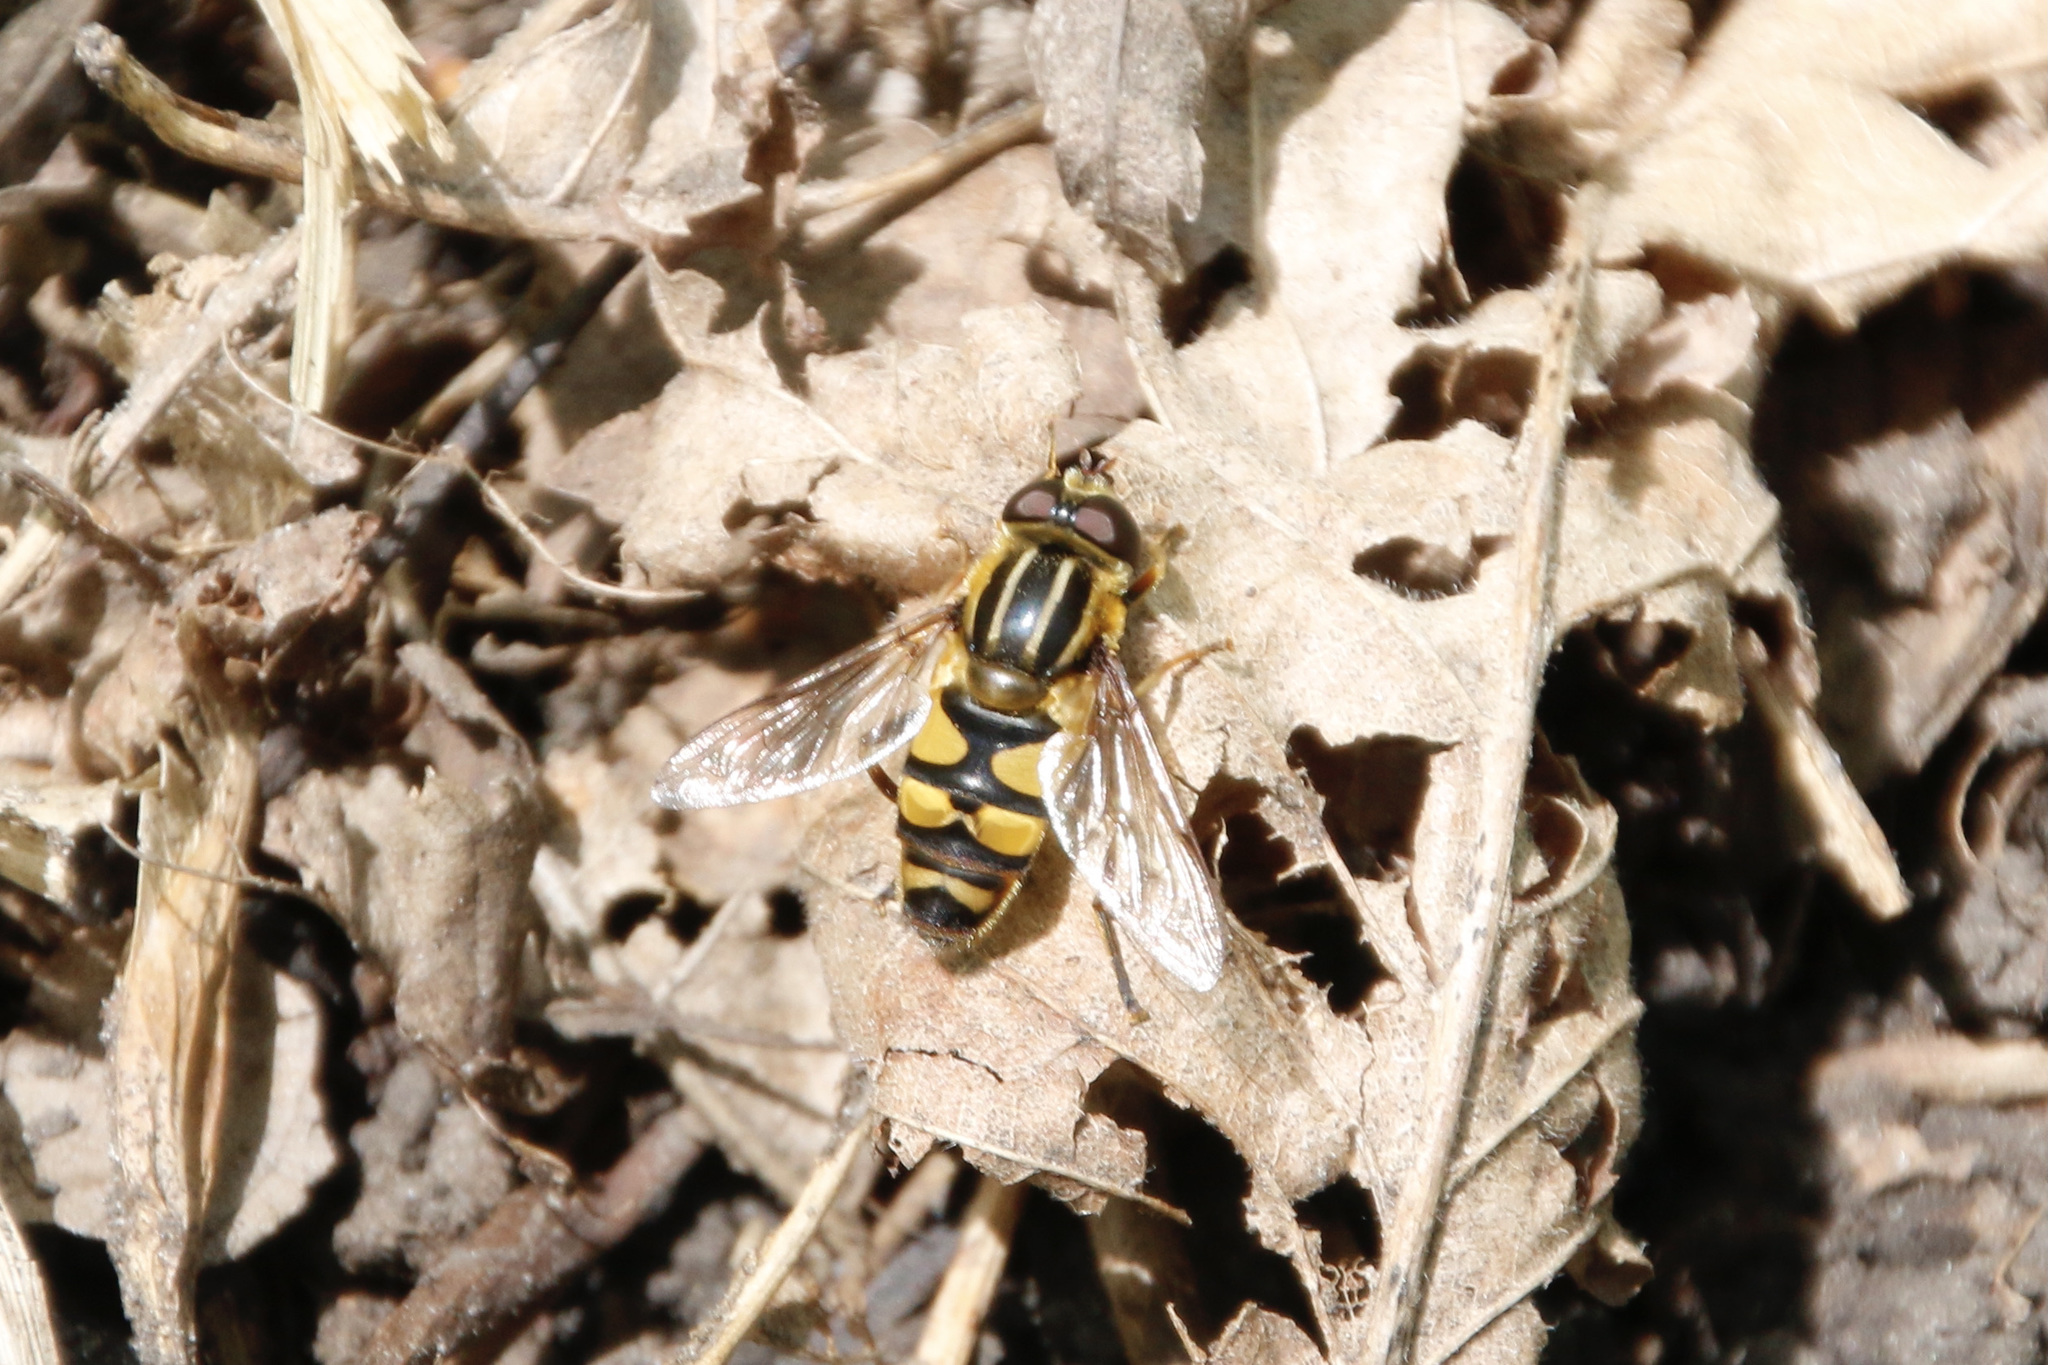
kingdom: Animalia
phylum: Arthropoda
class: Insecta
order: Diptera
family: Syrphidae
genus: Helophilus
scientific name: Helophilus fasciatus
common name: Narrow-headed marsh fly
